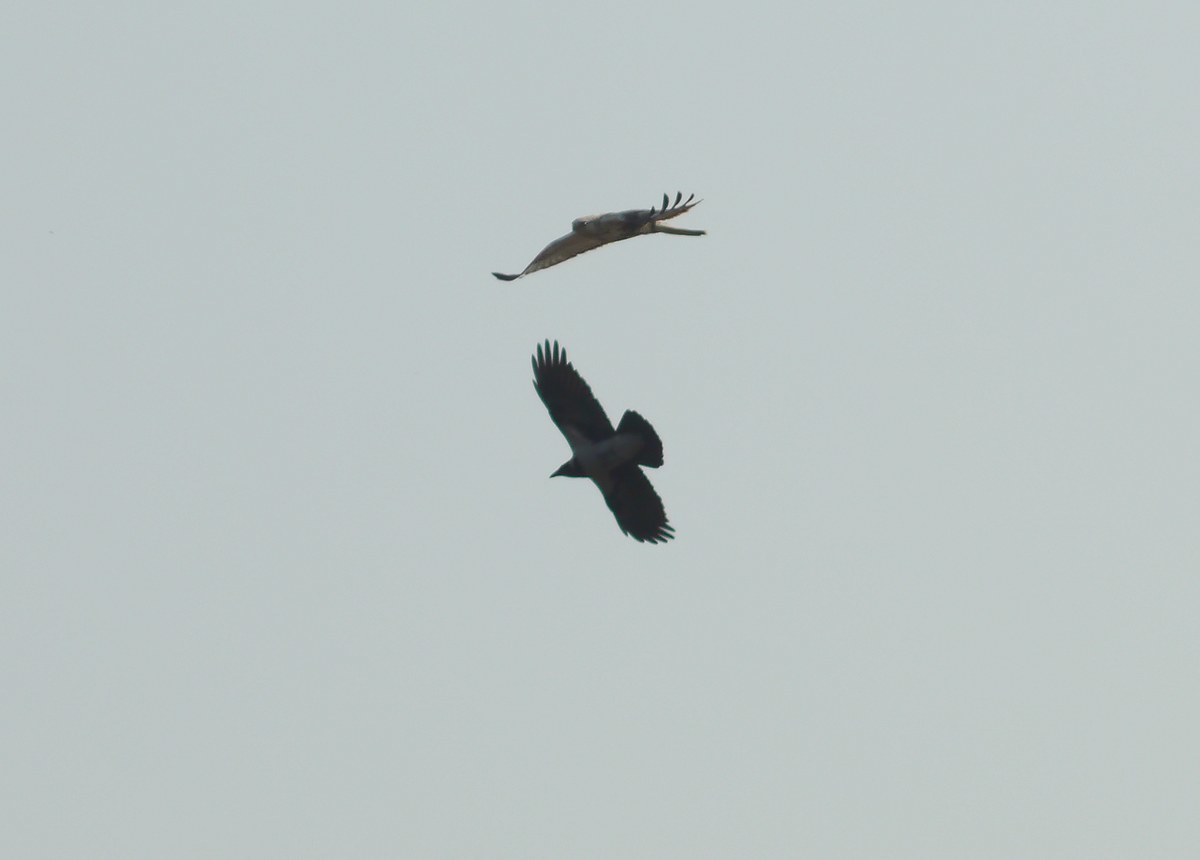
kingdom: Animalia
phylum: Chordata
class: Aves
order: Passeriformes
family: Corvidae
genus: Corvus
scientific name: Corvus cornix
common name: Hooded crow
